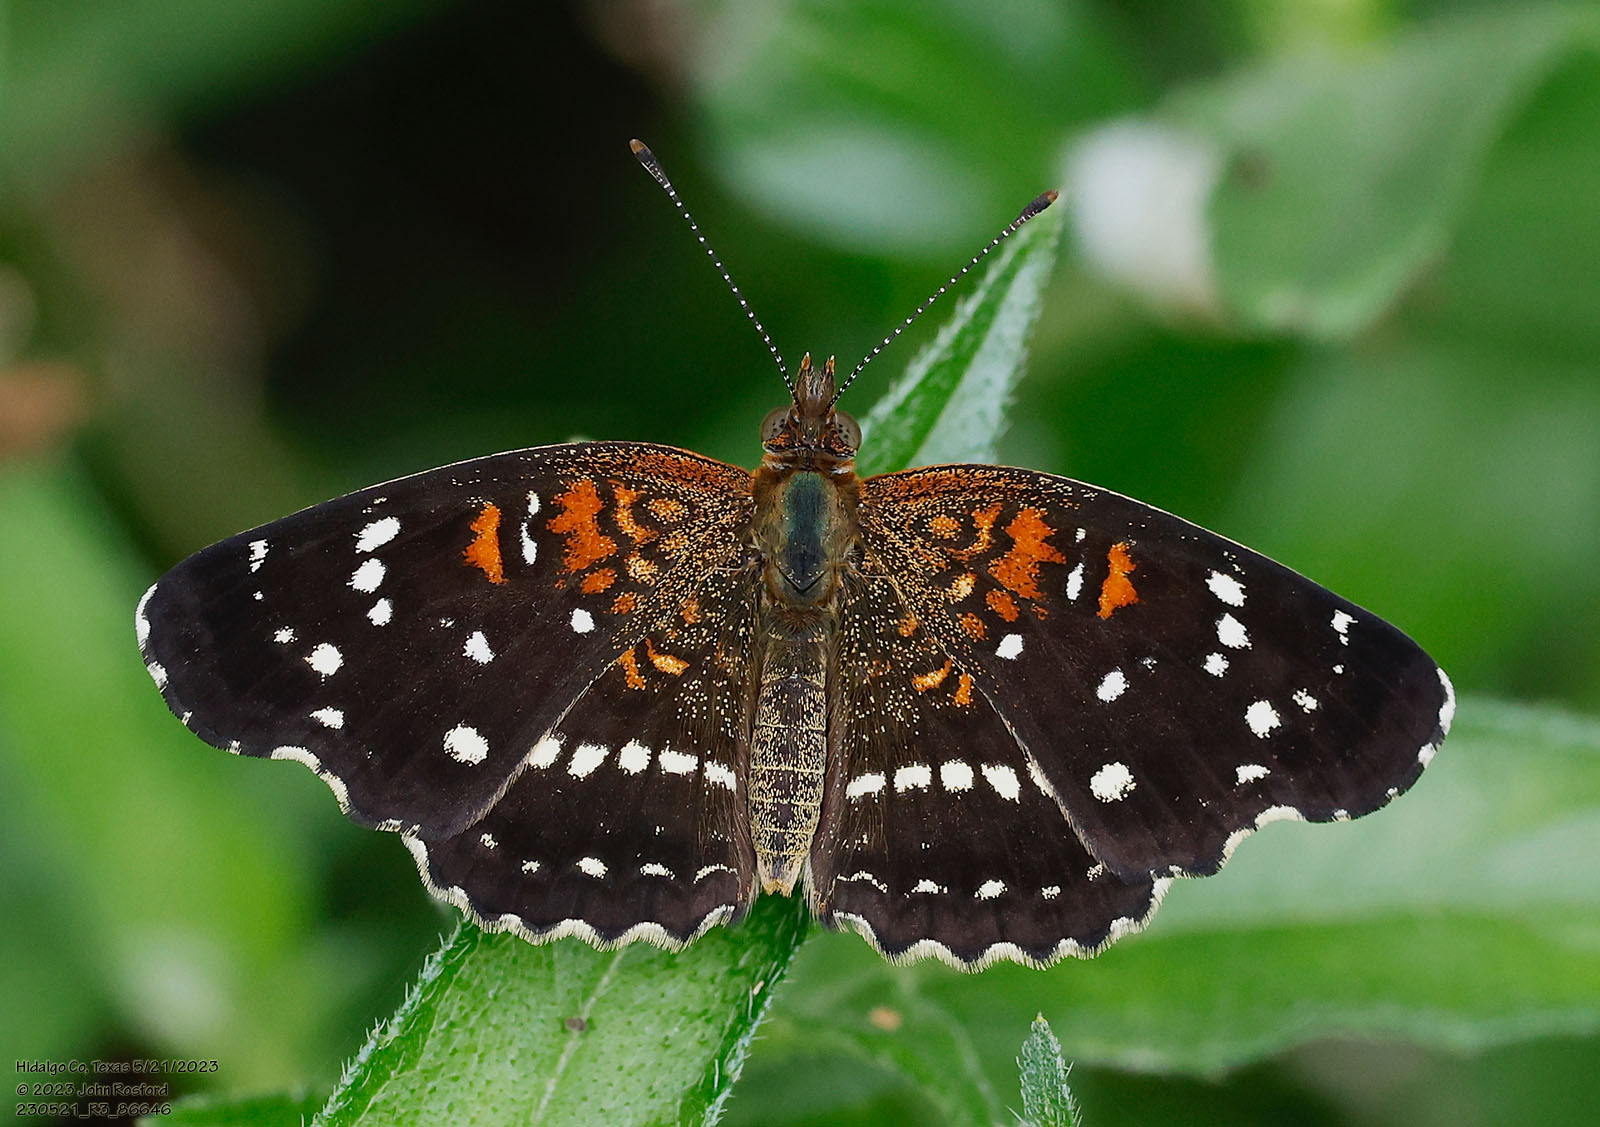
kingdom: Animalia
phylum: Arthropoda
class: Insecta
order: Lepidoptera
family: Nymphalidae
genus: Anthanassa
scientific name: Anthanassa texana
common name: Texan crescent
